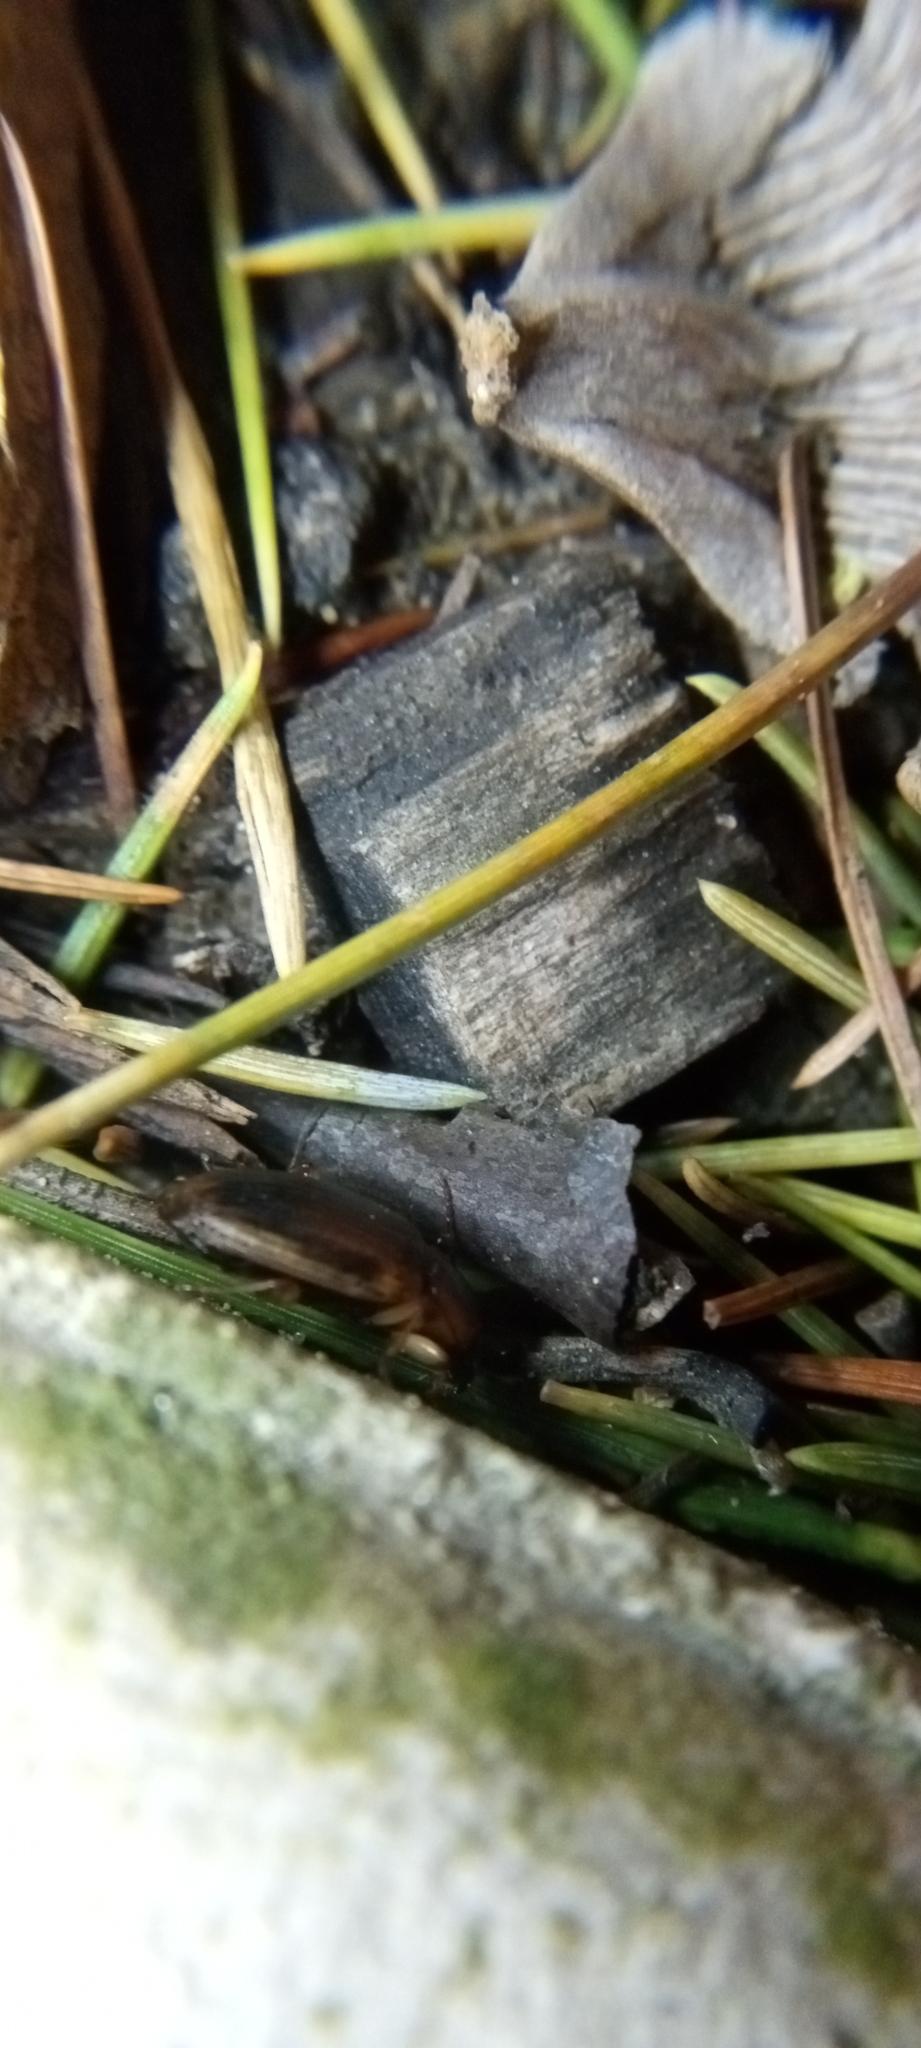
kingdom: Animalia
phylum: Arthropoda
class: Insecta
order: Coleoptera
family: Carabidae
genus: Tanystoma
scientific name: Tanystoma maculicolle
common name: Tule beetle
